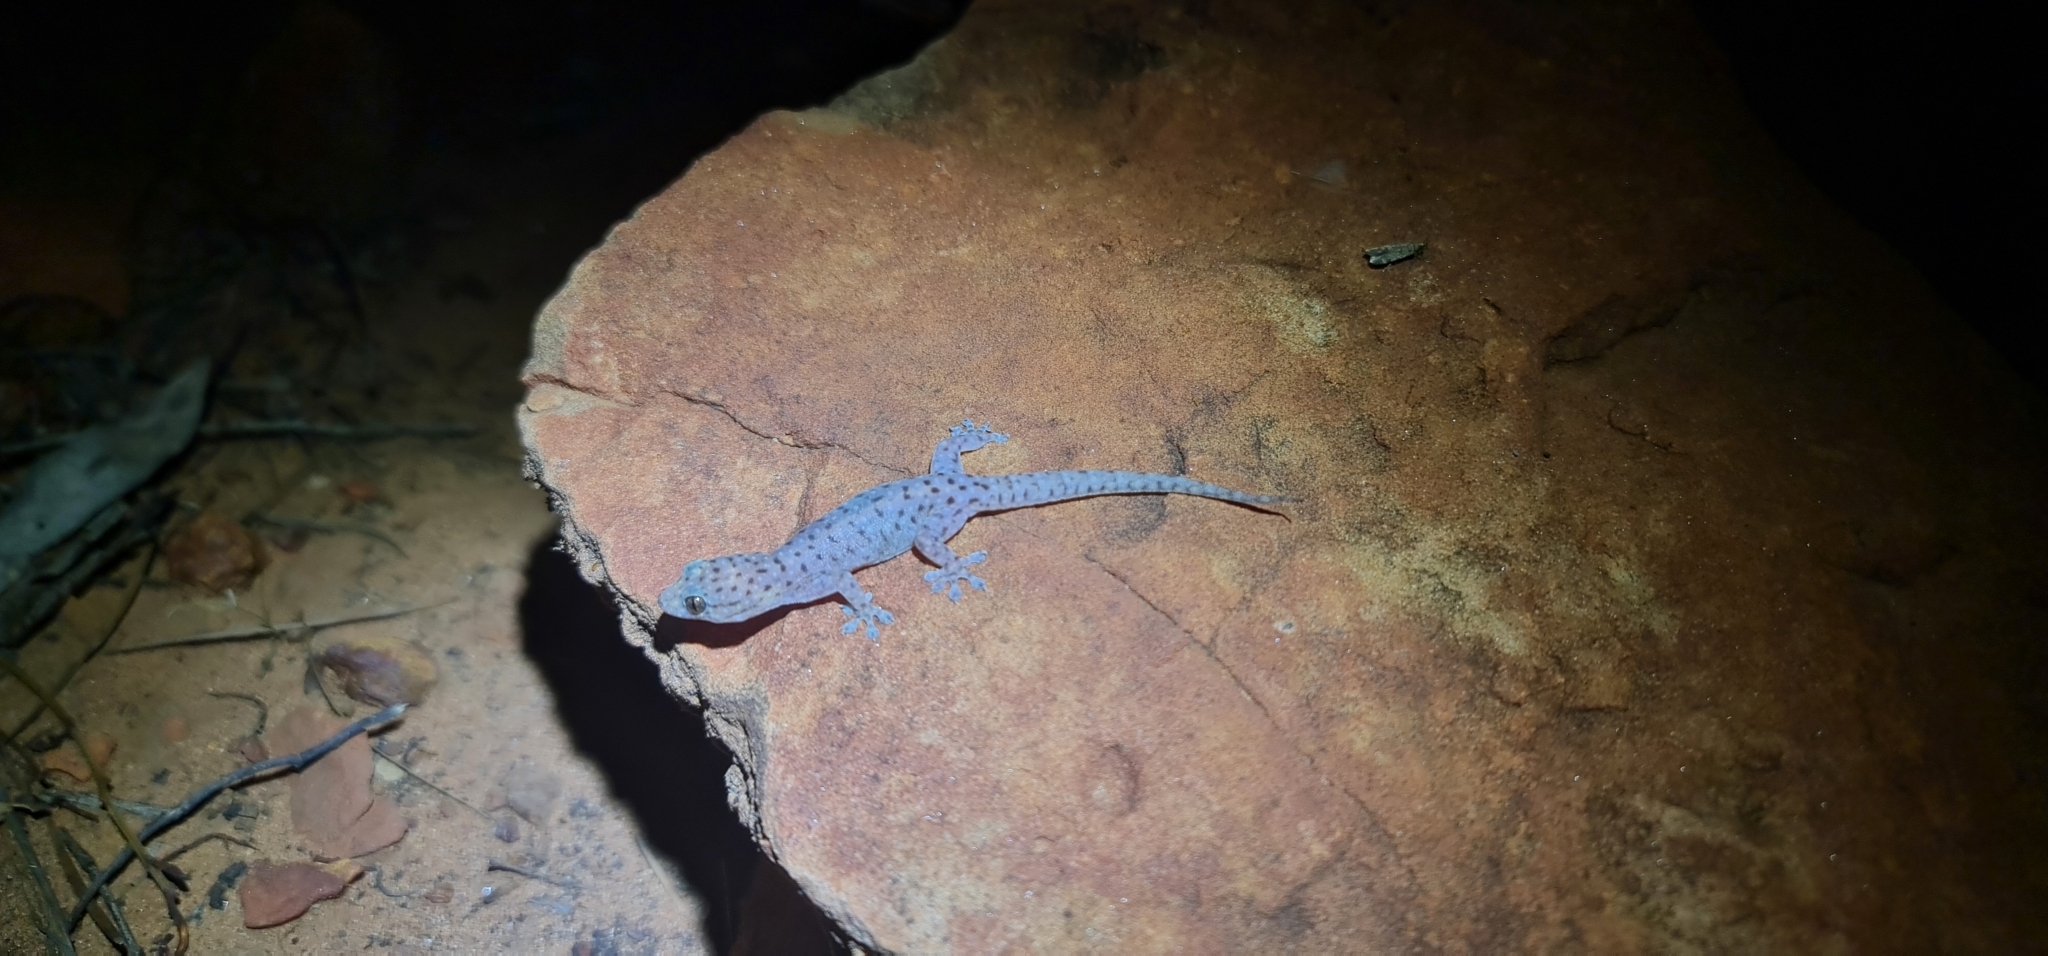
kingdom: Animalia
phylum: Chordata
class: Squamata
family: Gekkonidae
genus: Gehyra
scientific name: Gehyra moritzi
